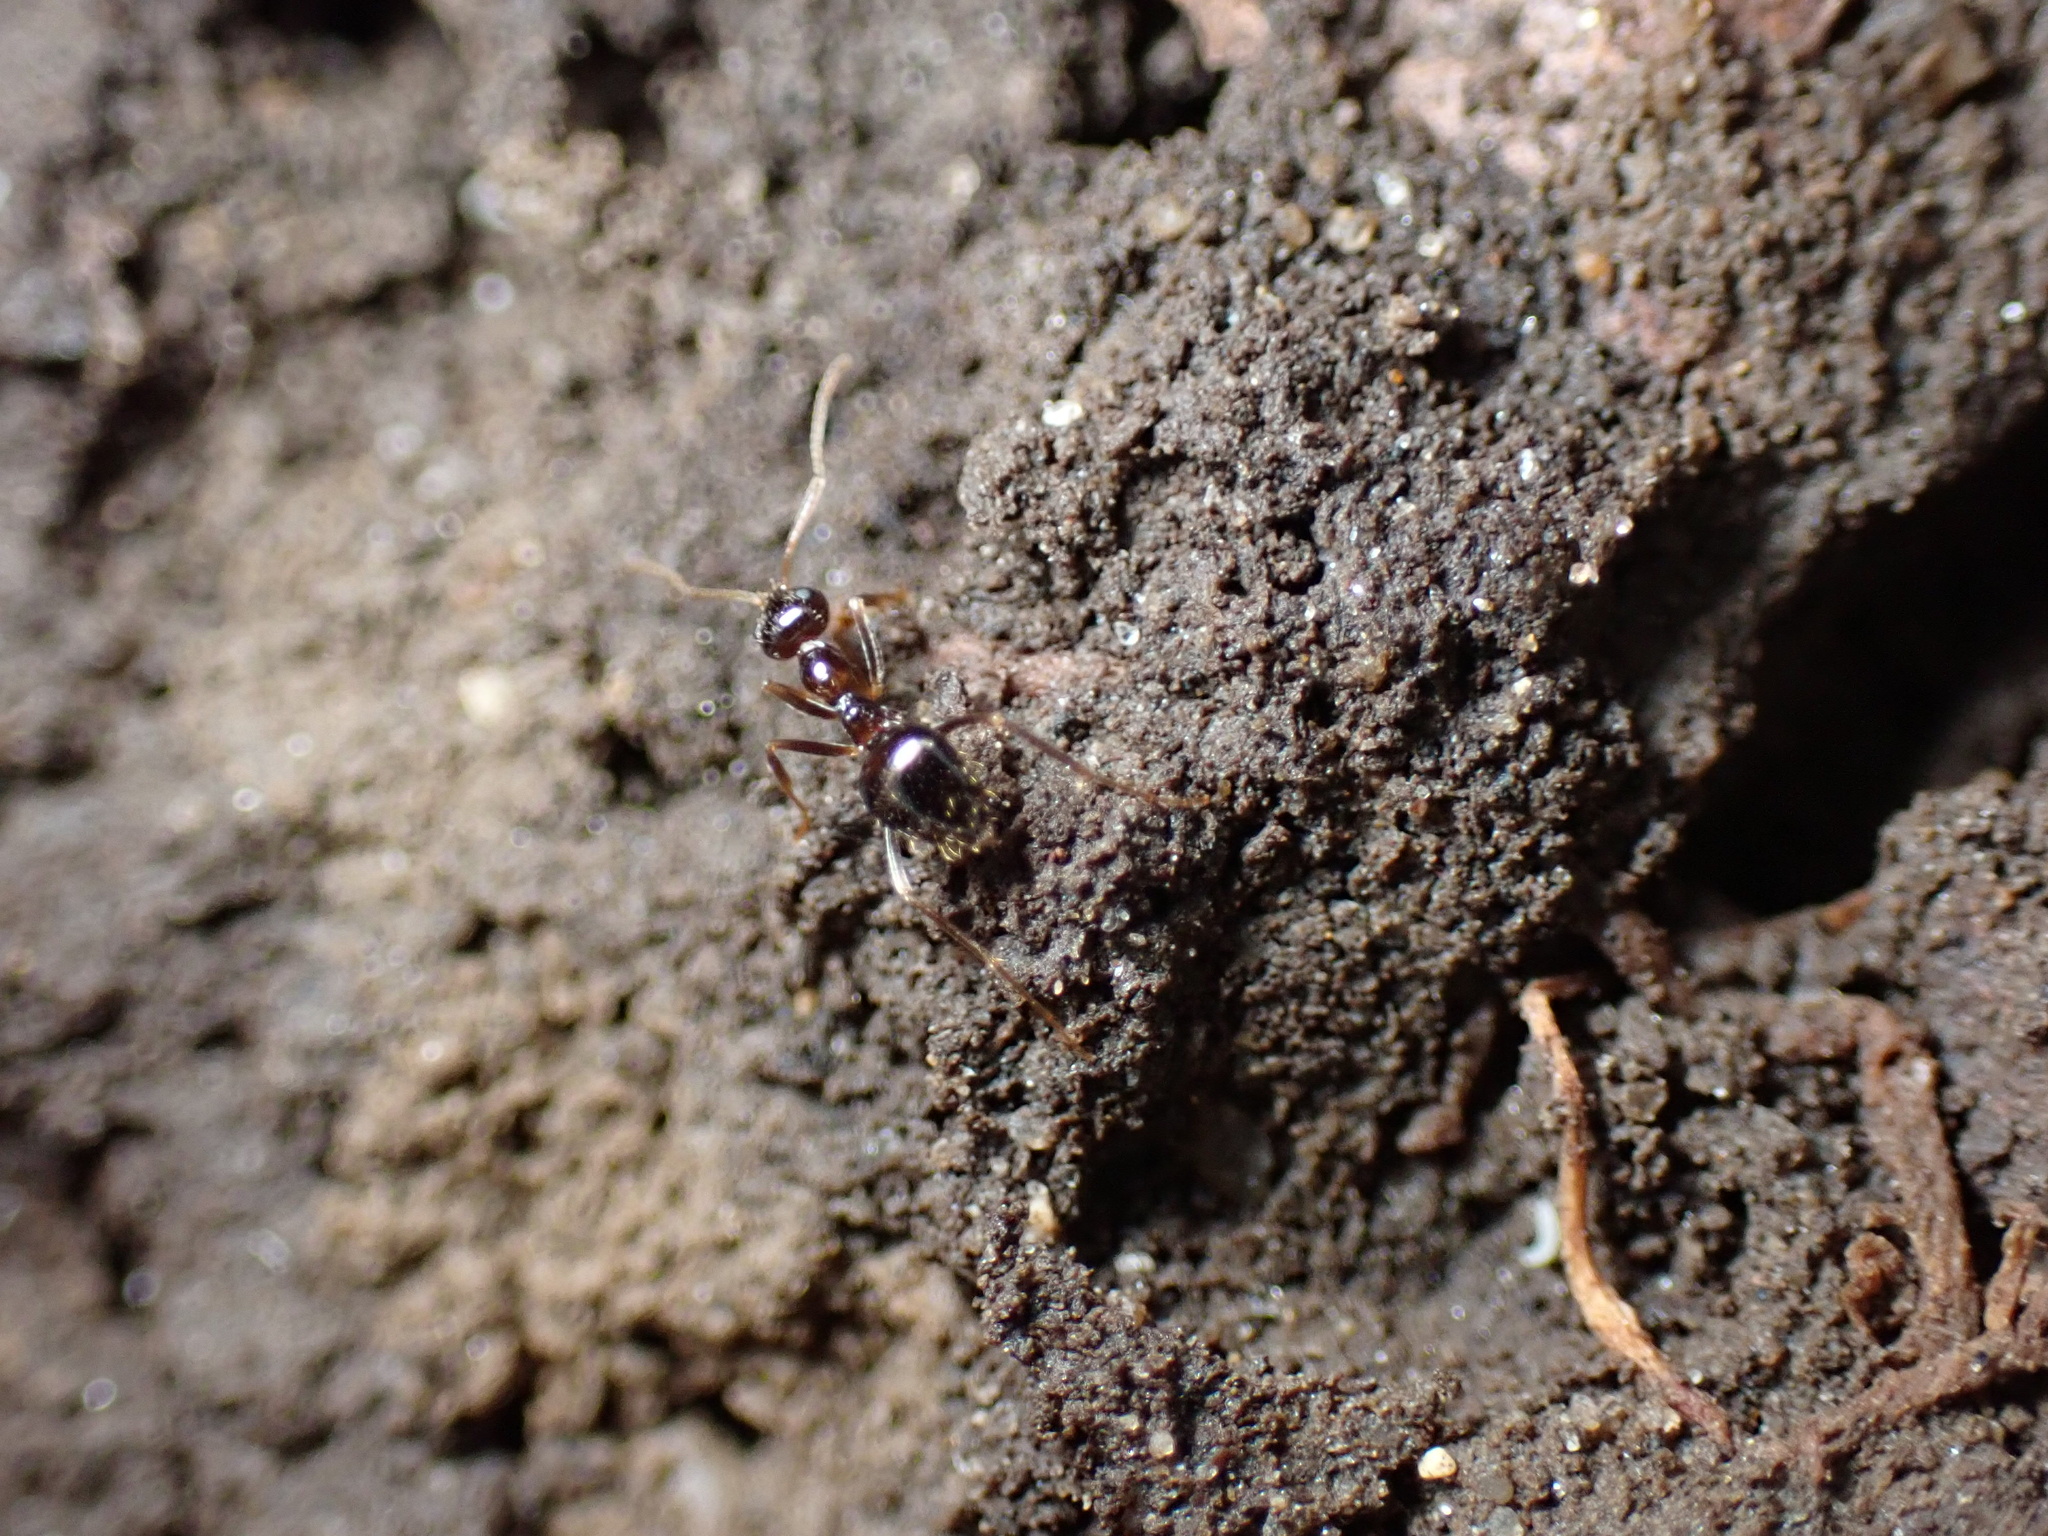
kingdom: Animalia
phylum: Arthropoda
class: Insecta
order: Hymenoptera
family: Formicidae
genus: Prenolepis
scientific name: Prenolepis imparis
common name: Small honey ant
